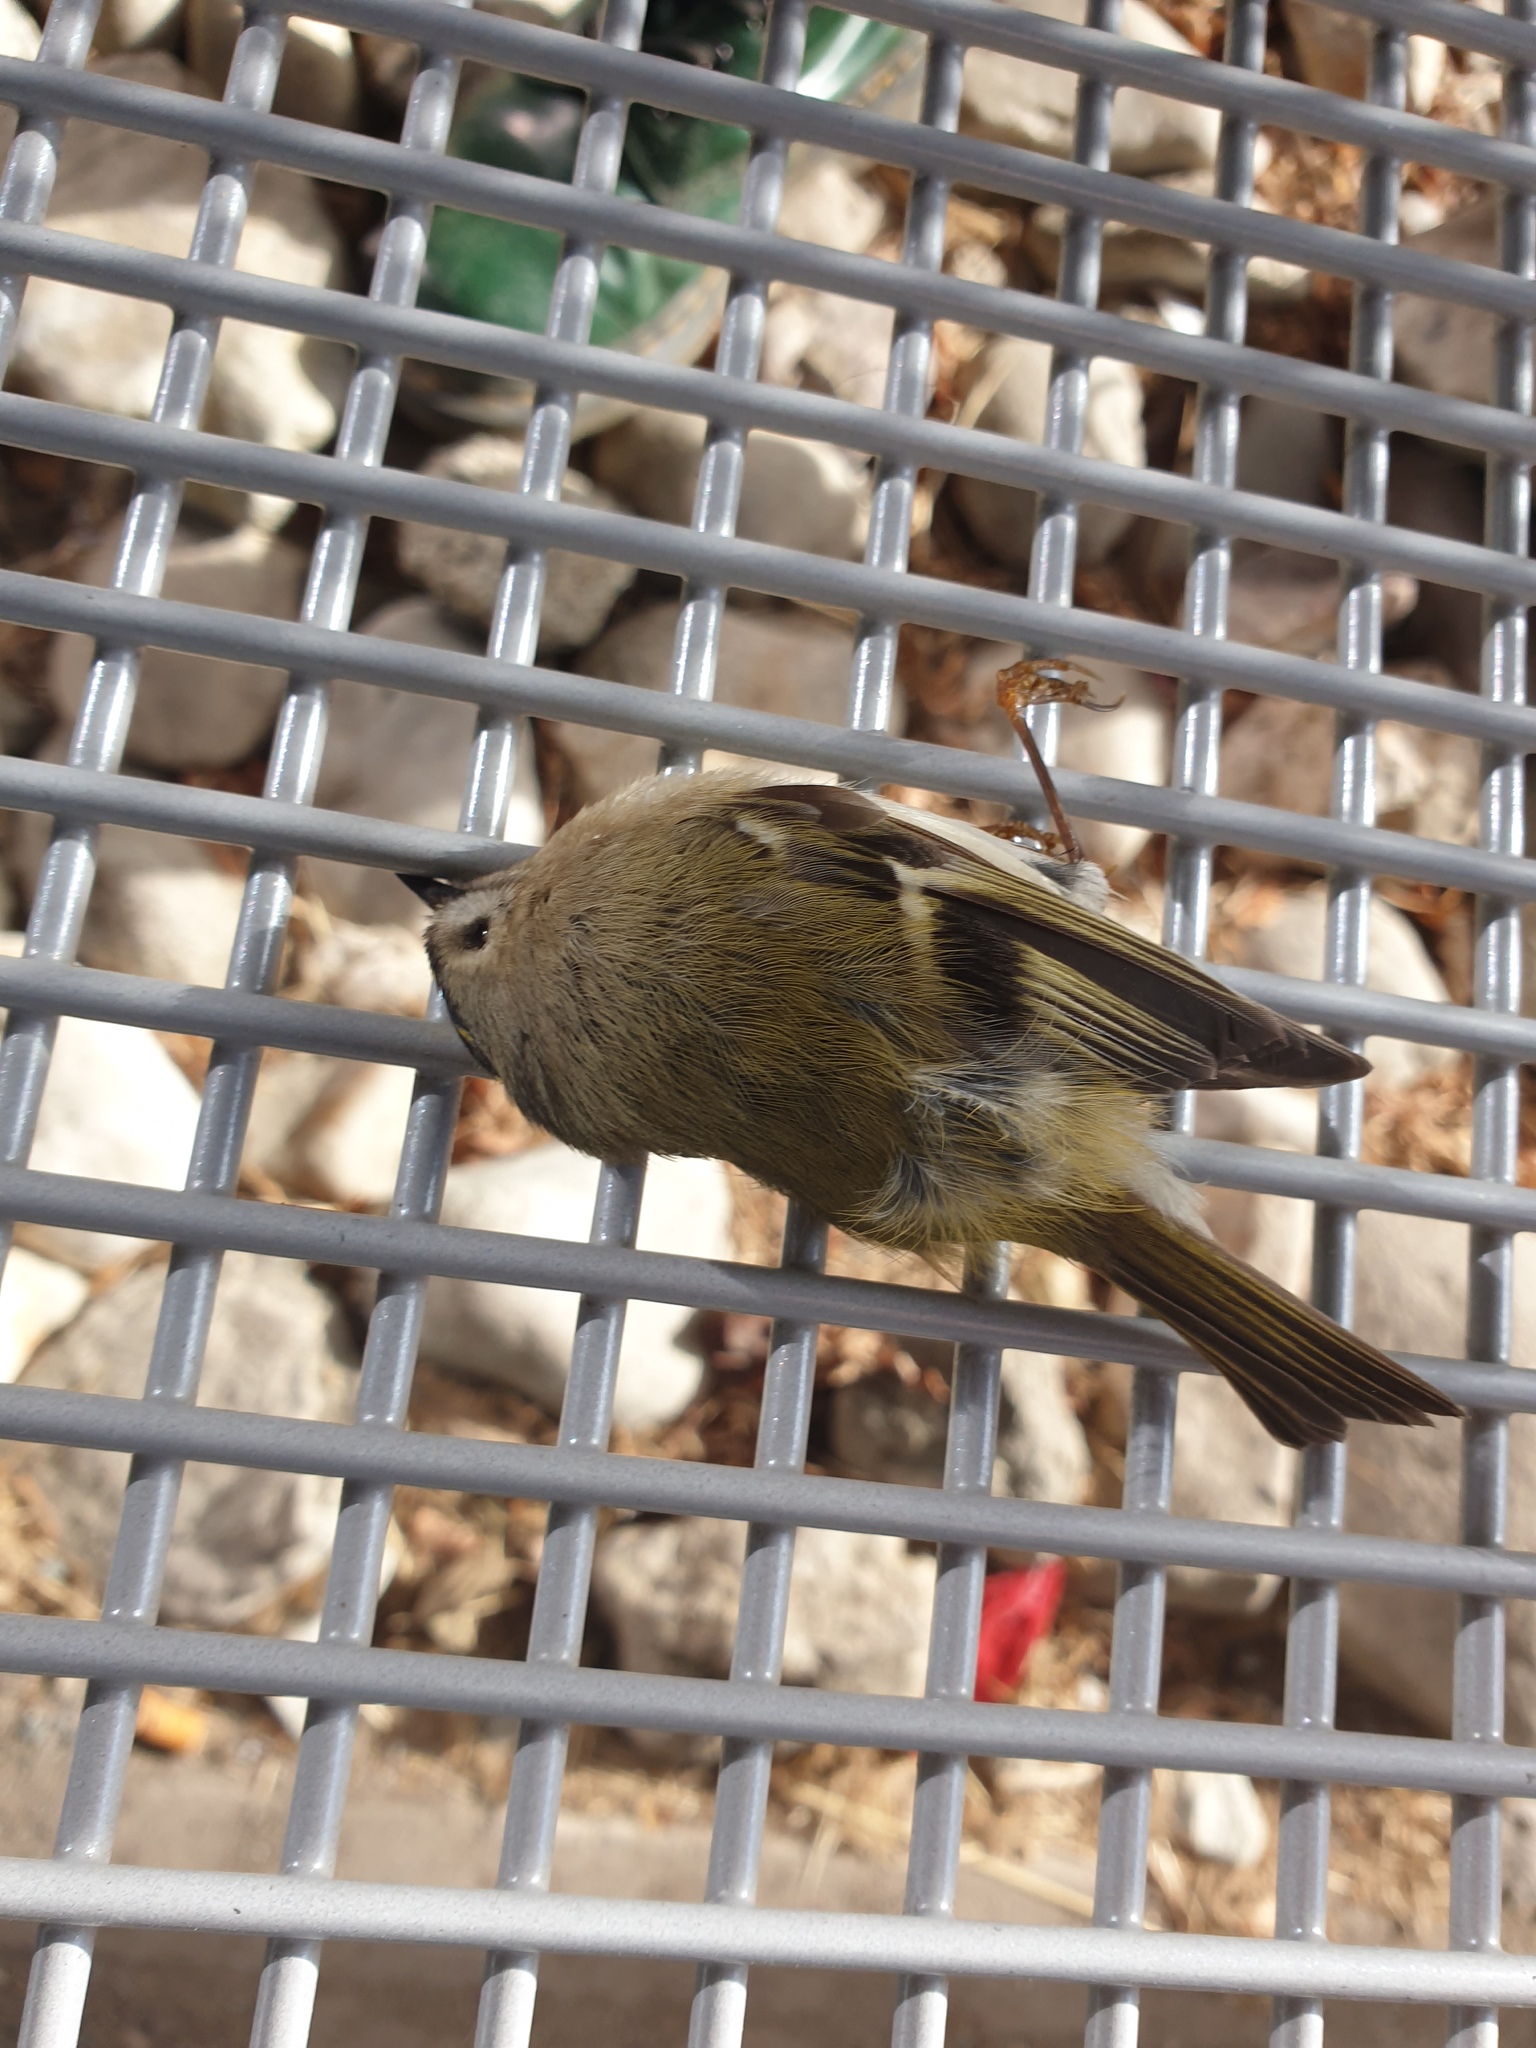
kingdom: Animalia
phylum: Chordata
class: Aves
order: Passeriformes
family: Regulidae
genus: Regulus
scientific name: Regulus regulus
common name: Goldcrest
